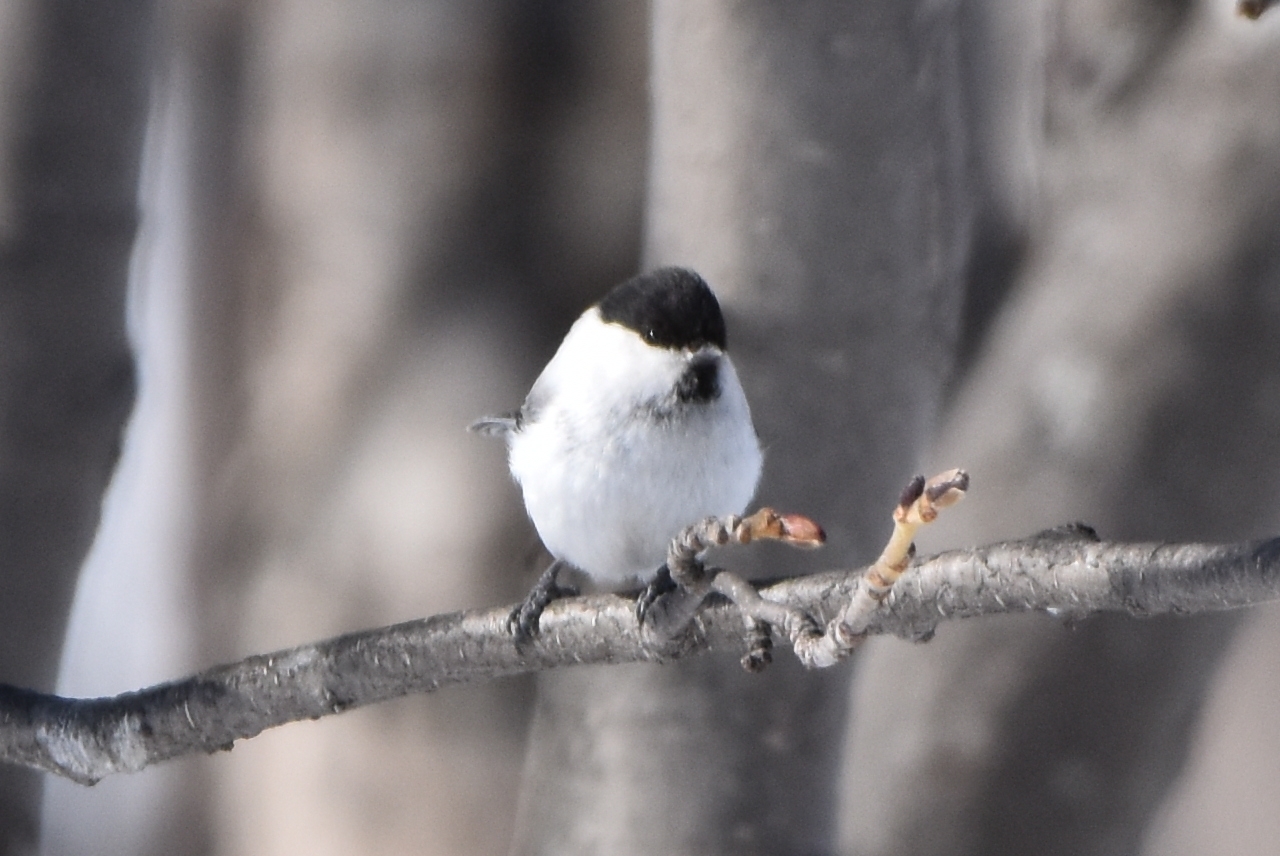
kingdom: Animalia
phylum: Chordata
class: Aves
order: Passeriformes
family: Paridae
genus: Poecile
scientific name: Poecile montanus
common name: Willow tit
